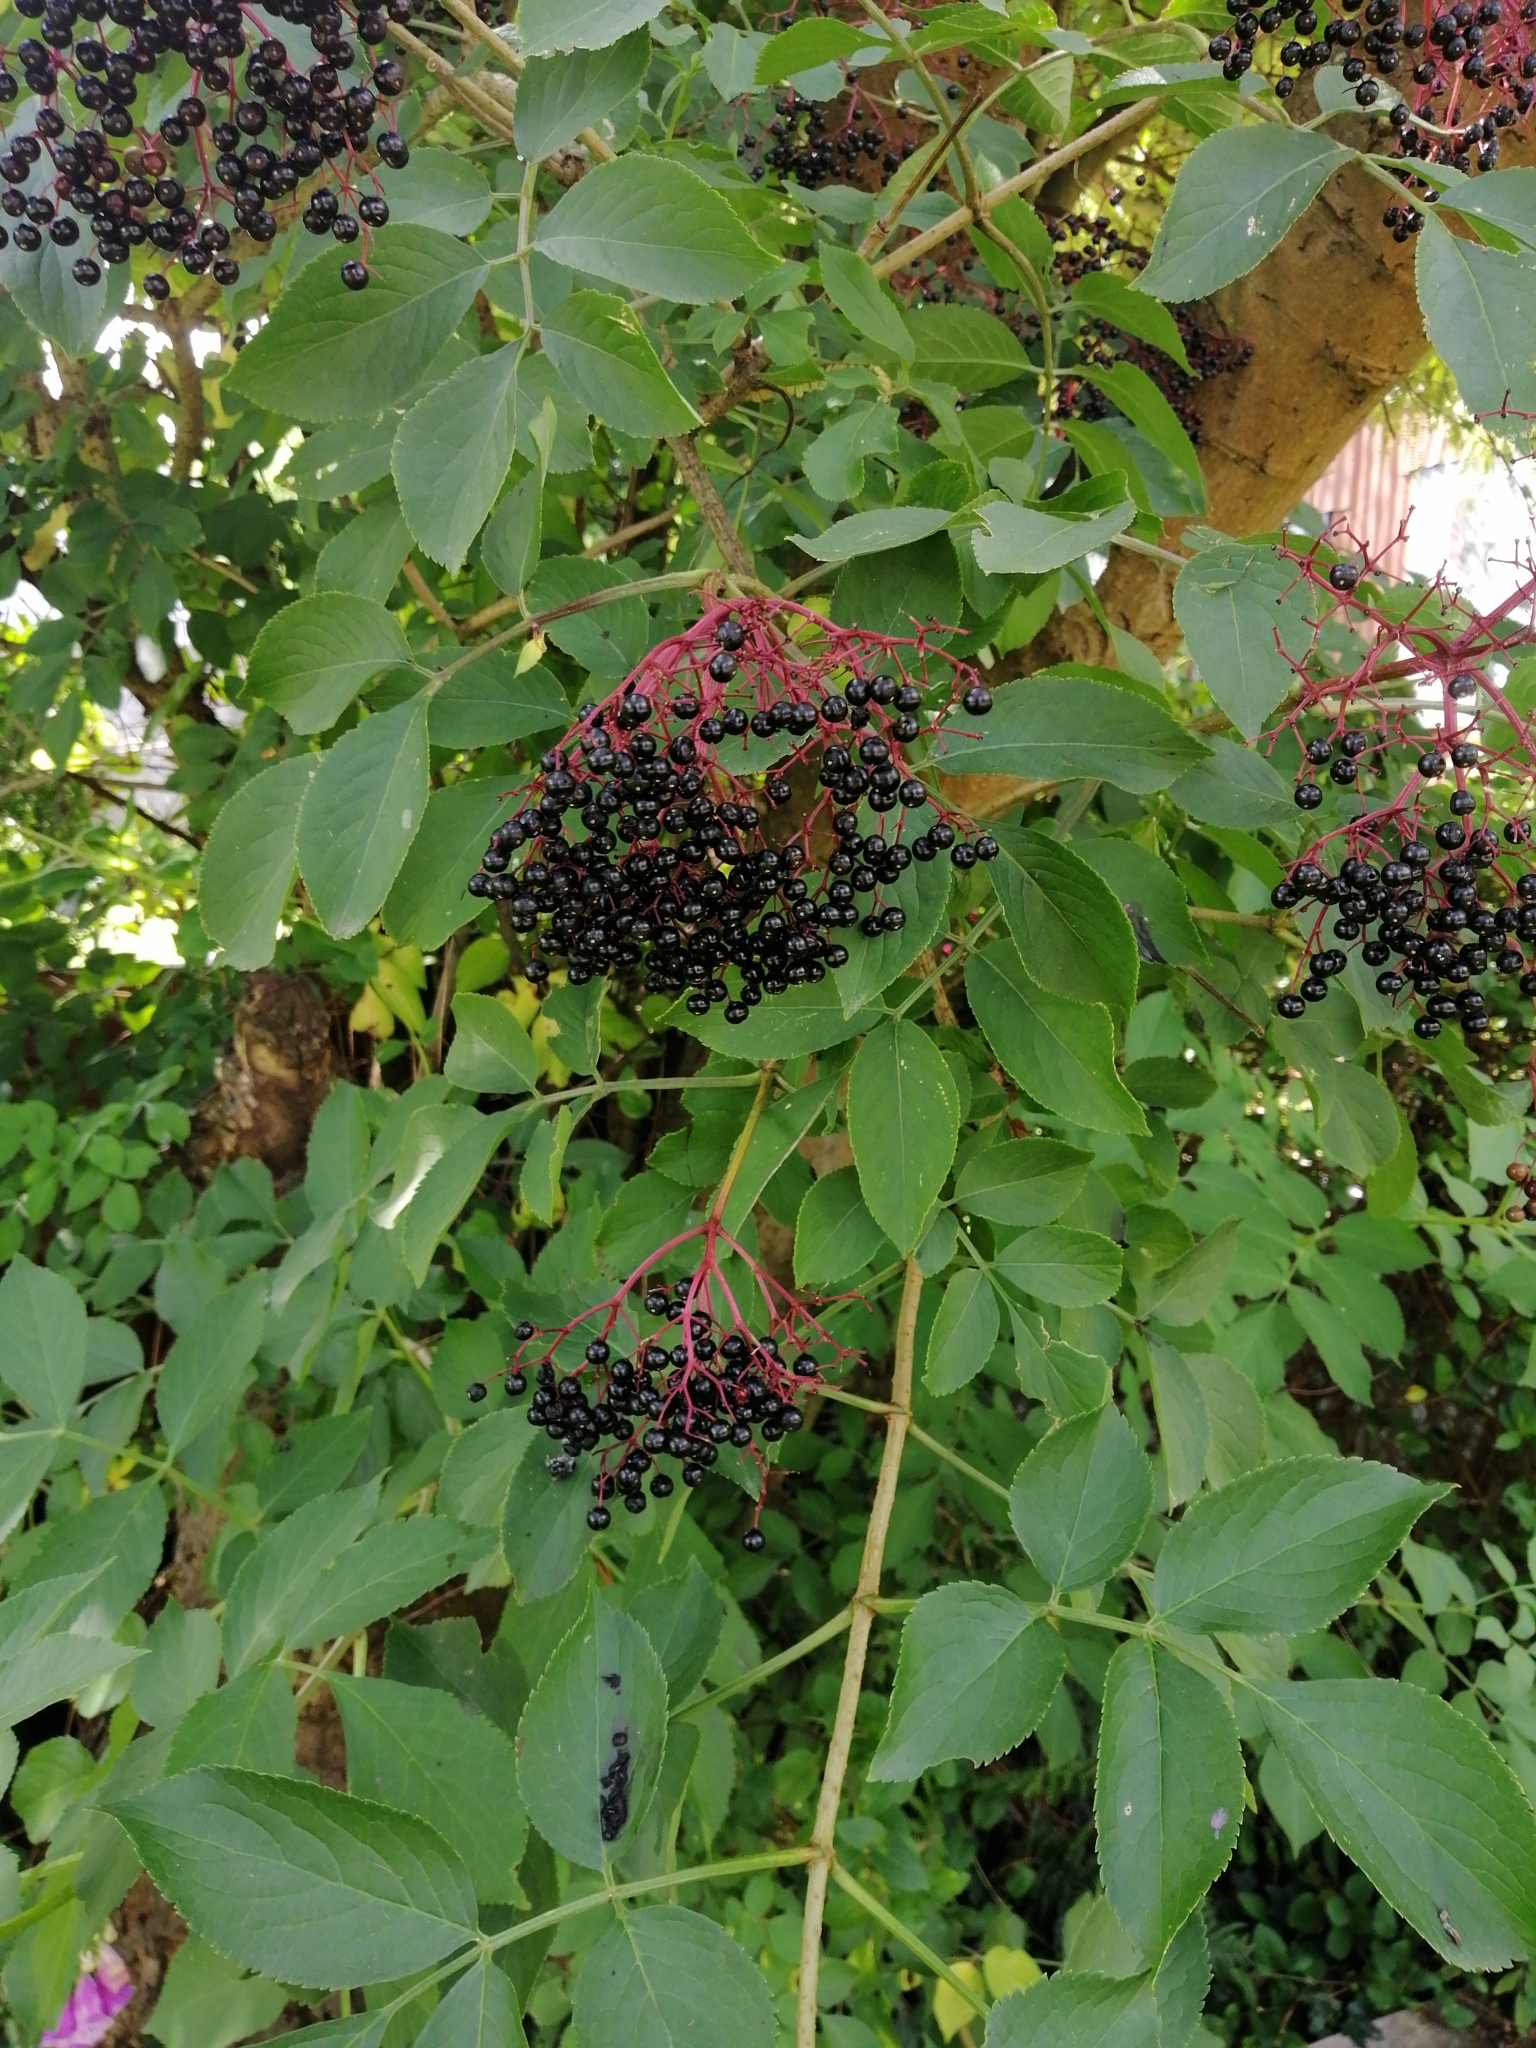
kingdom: Plantae
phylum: Tracheophyta
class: Magnoliopsida
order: Dipsacales
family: Viburnaceae
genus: Sambucus
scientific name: Sambucus nigra
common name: Elder
